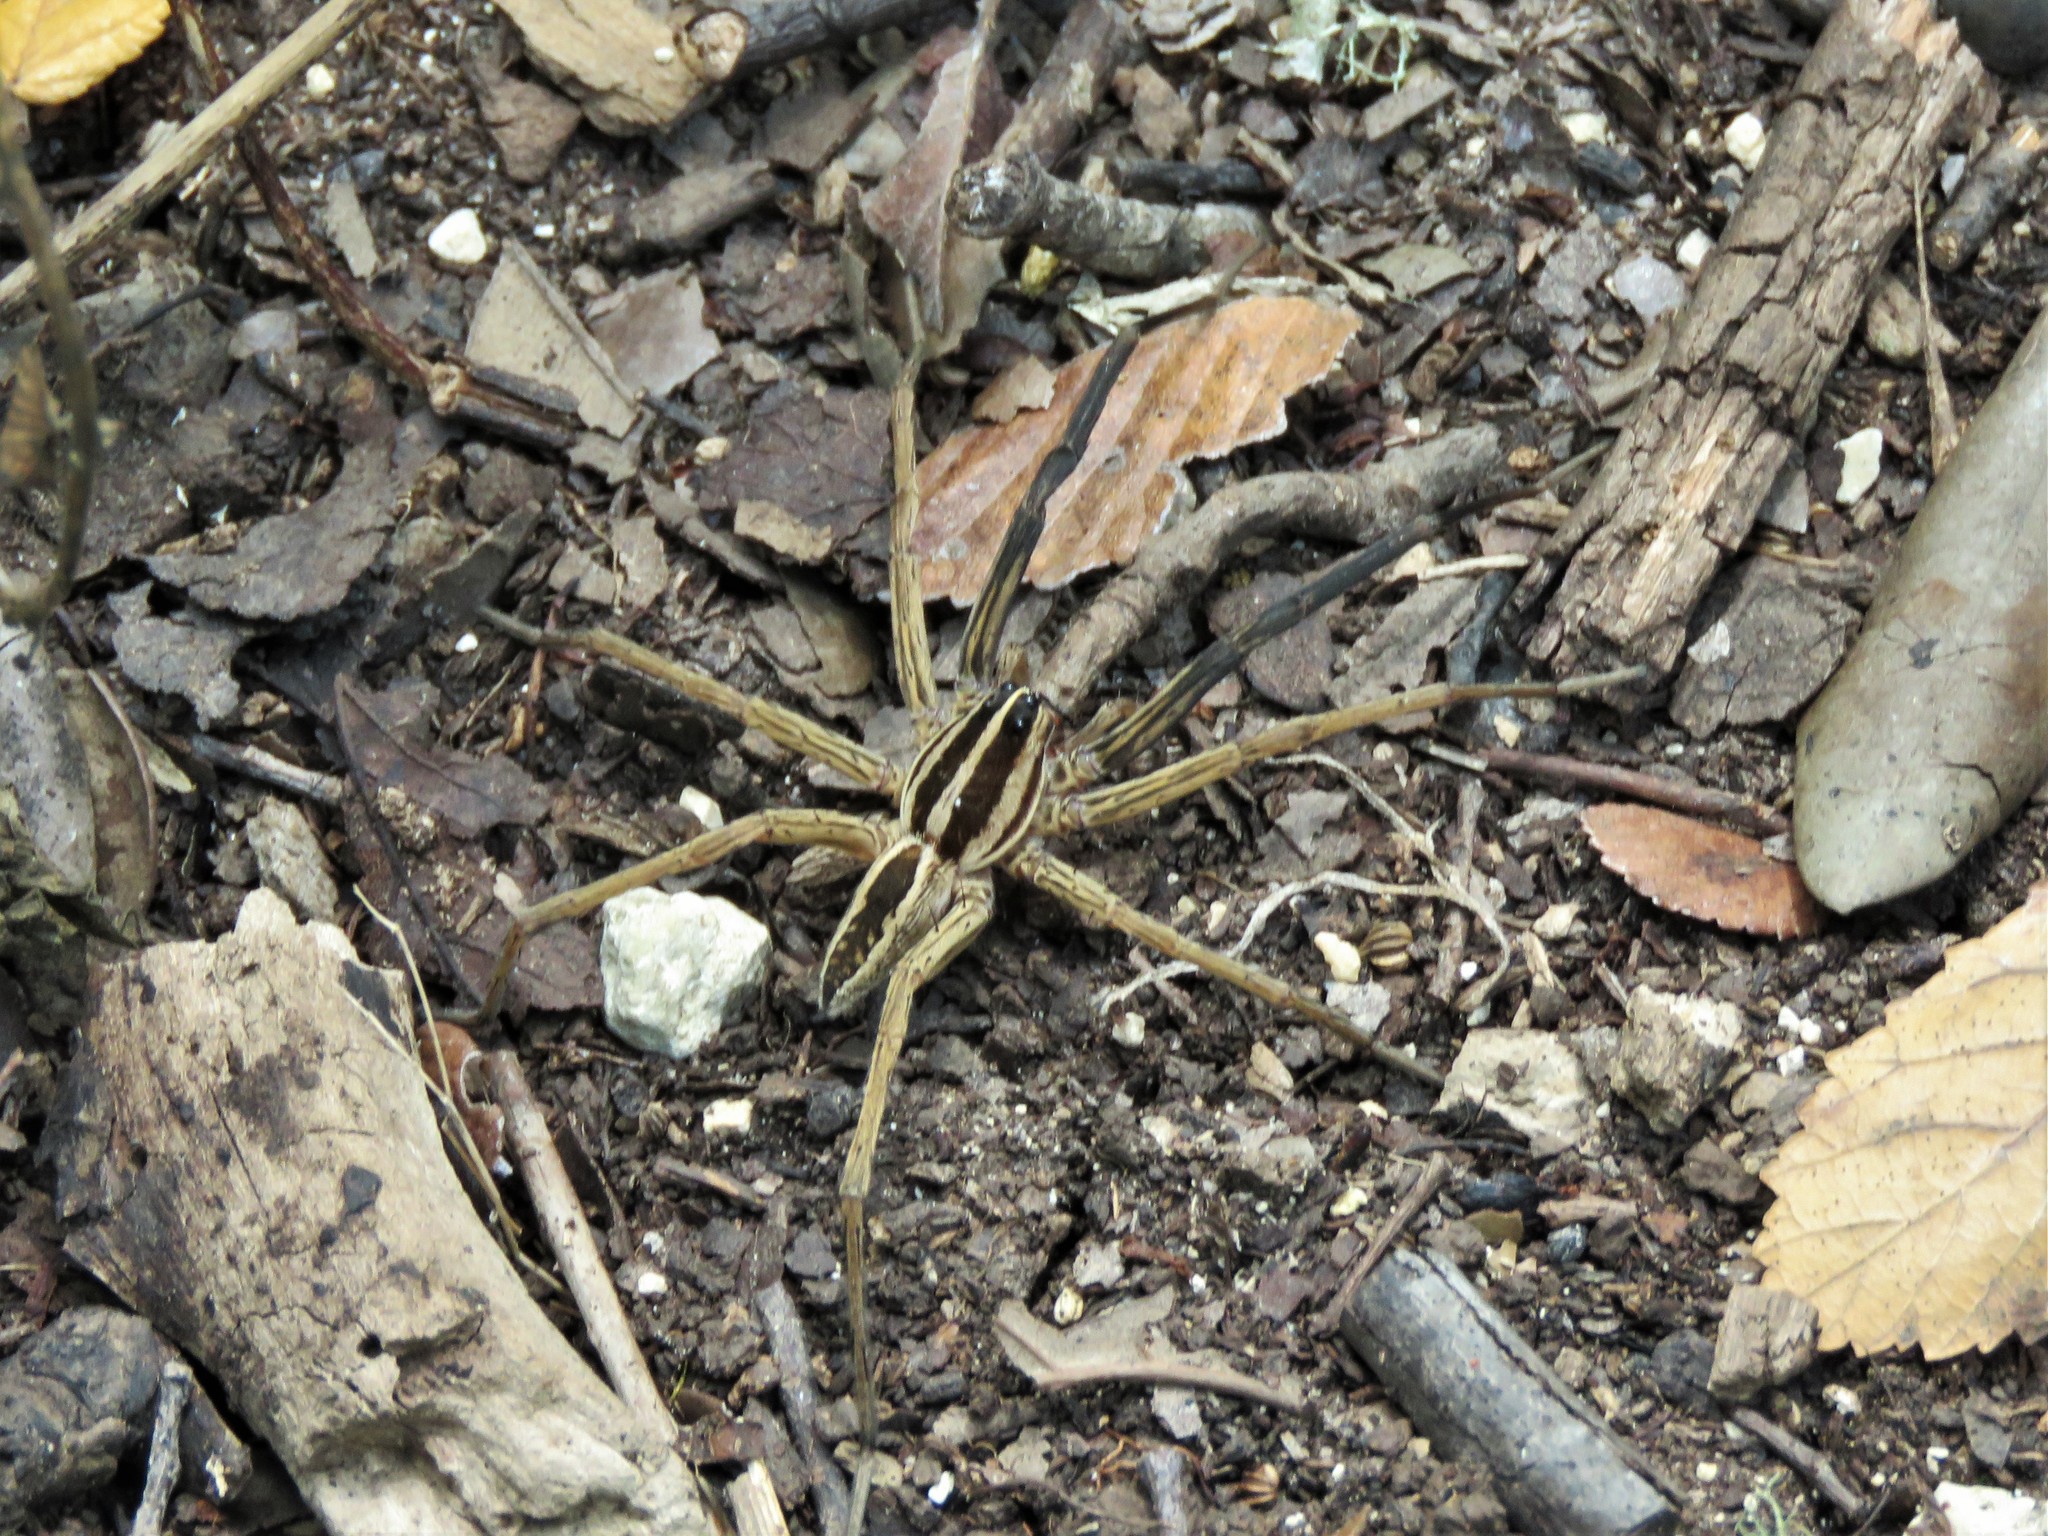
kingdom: Animalia
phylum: Arthropoda
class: Arachnida
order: Araneae
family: Lycosidae
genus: Rabidosa
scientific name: Rabidosa rabida
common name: Rabid wolf spider
